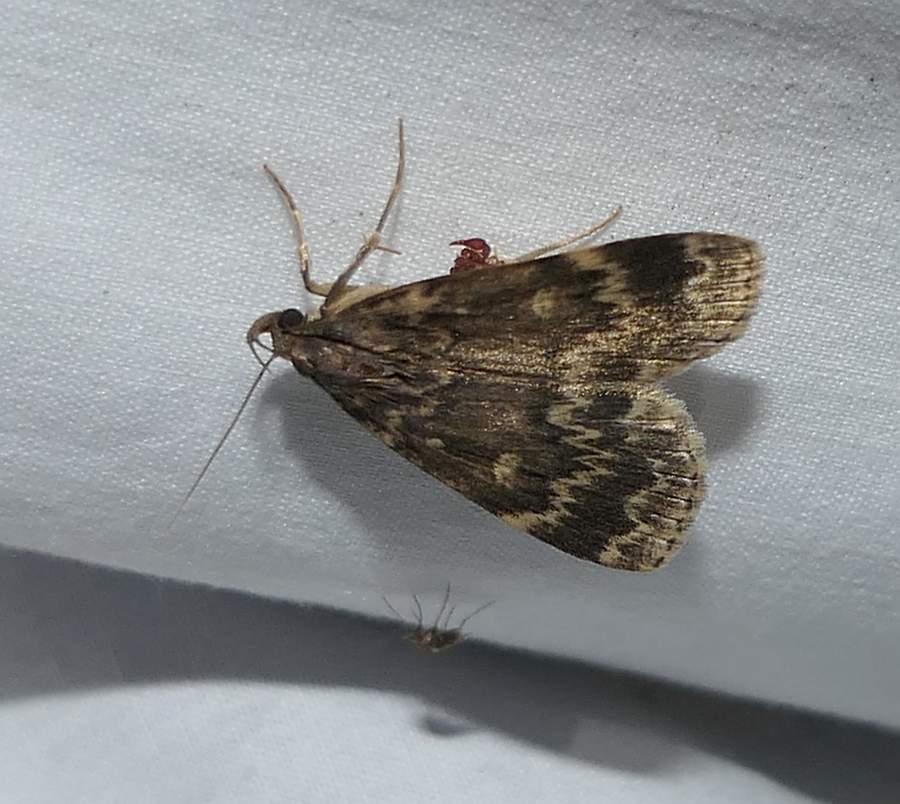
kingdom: Animalia
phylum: Arthropoda
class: Insecta
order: Lepidoptera
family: Erebidae
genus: Idia
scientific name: Idia lubricalis
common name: Twin-striped tabby
